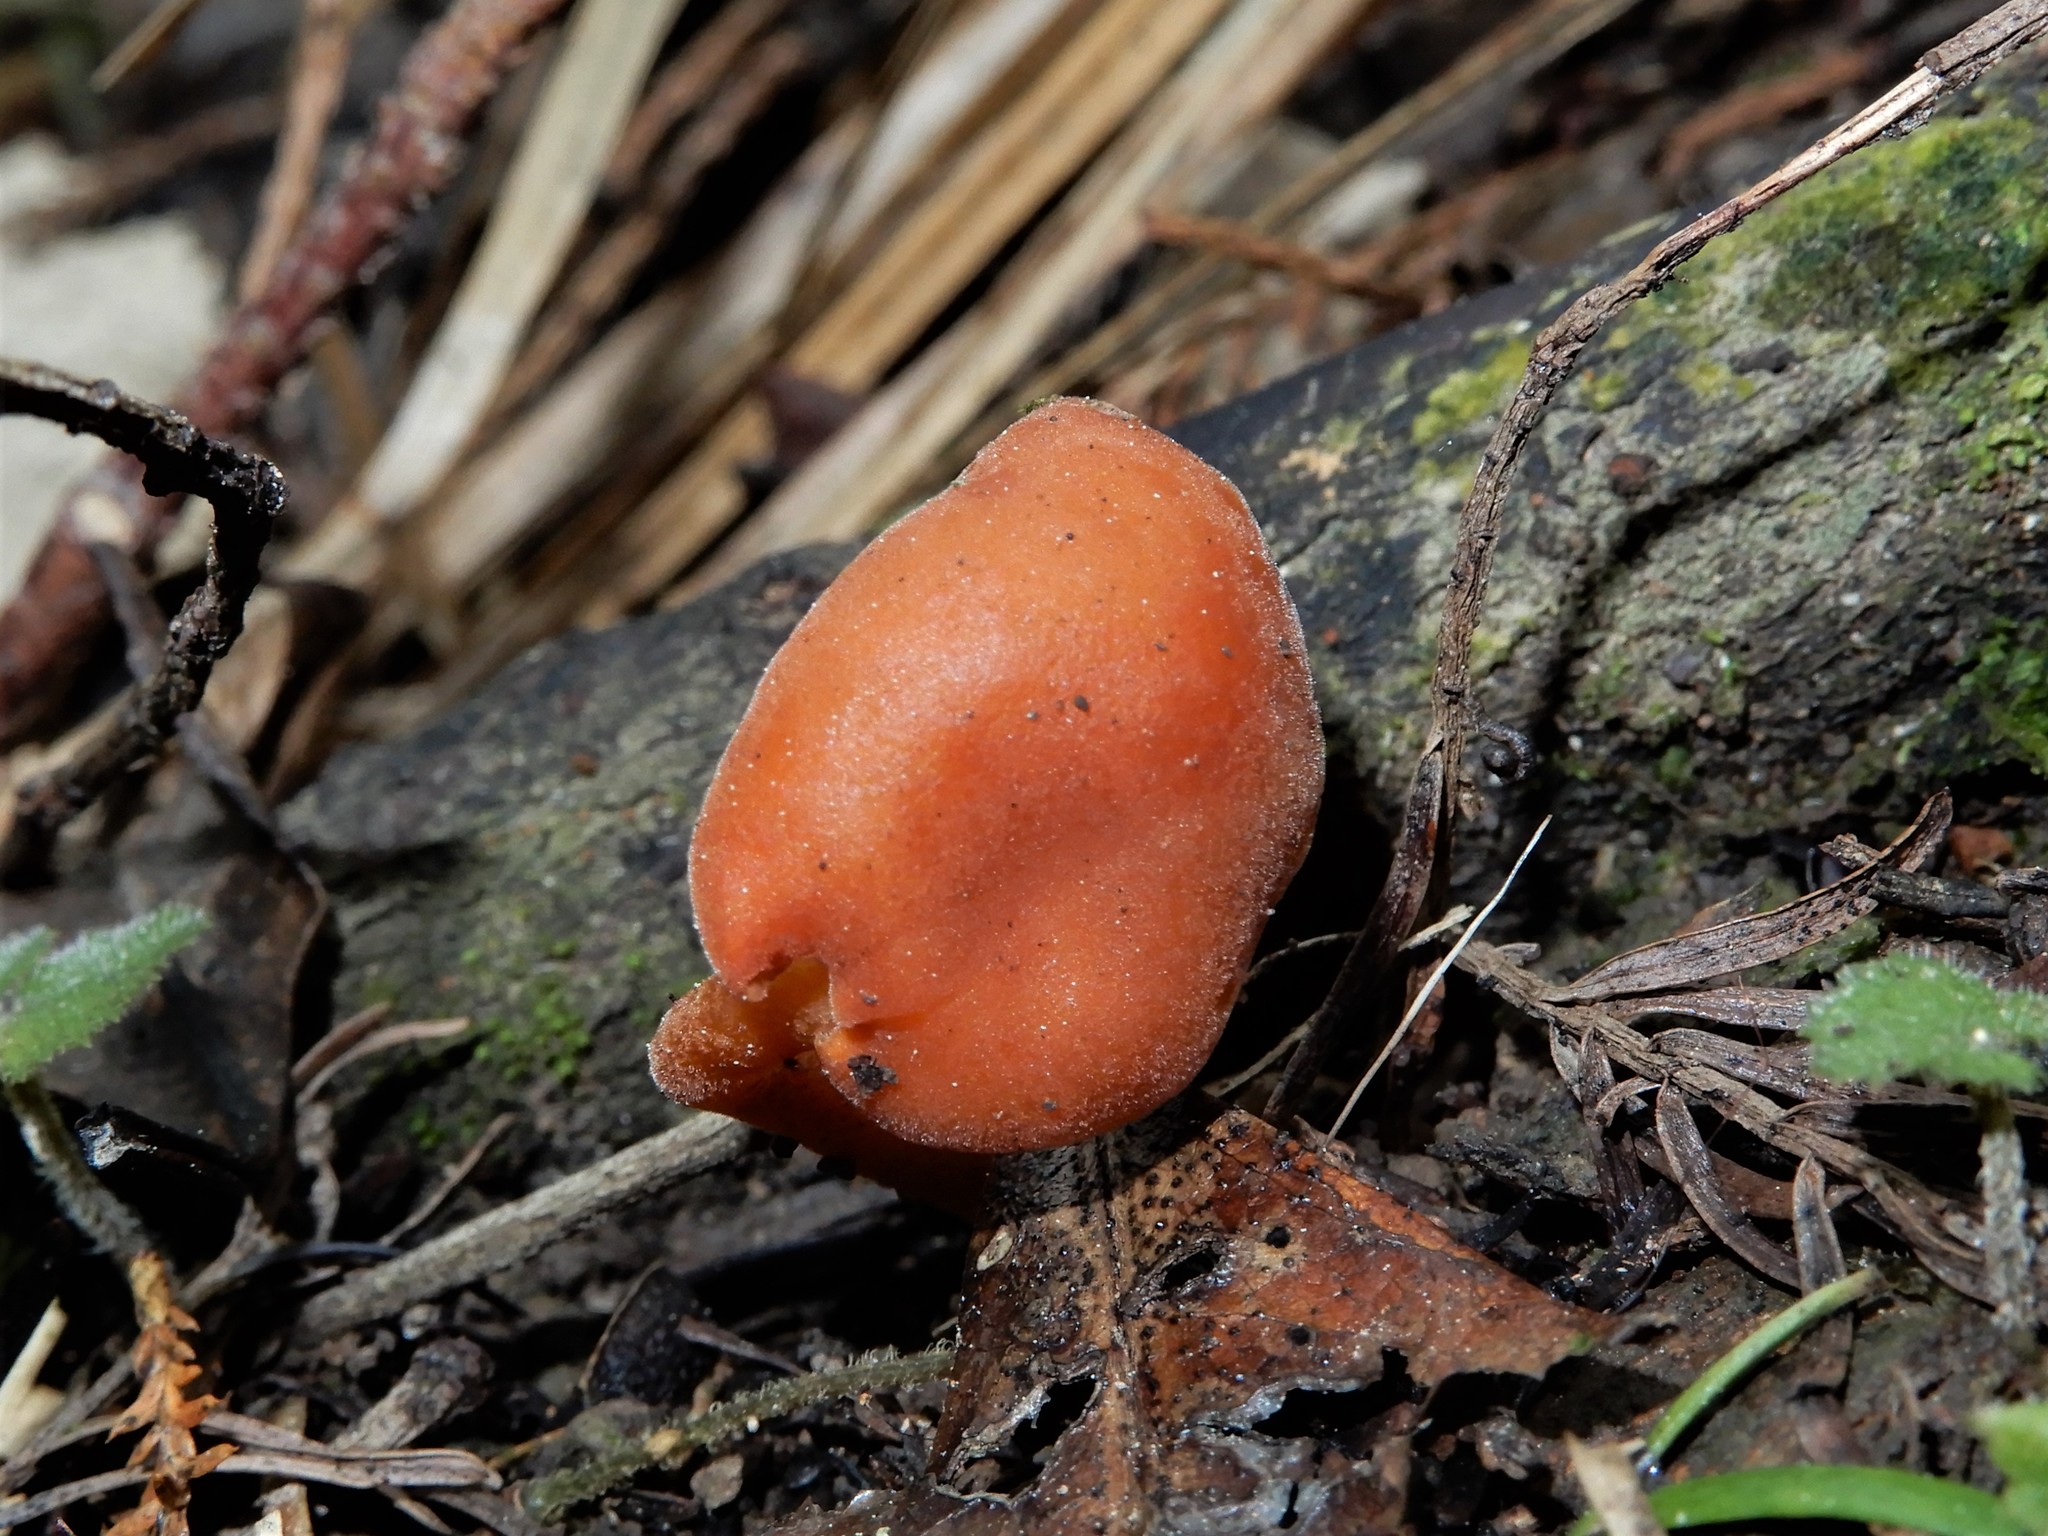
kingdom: Fungi
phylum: Basidiomycota
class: Agaricomycetes
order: Agaricales
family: Macrocystidiaceae
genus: Macrocystidia
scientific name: Macrocystidia
